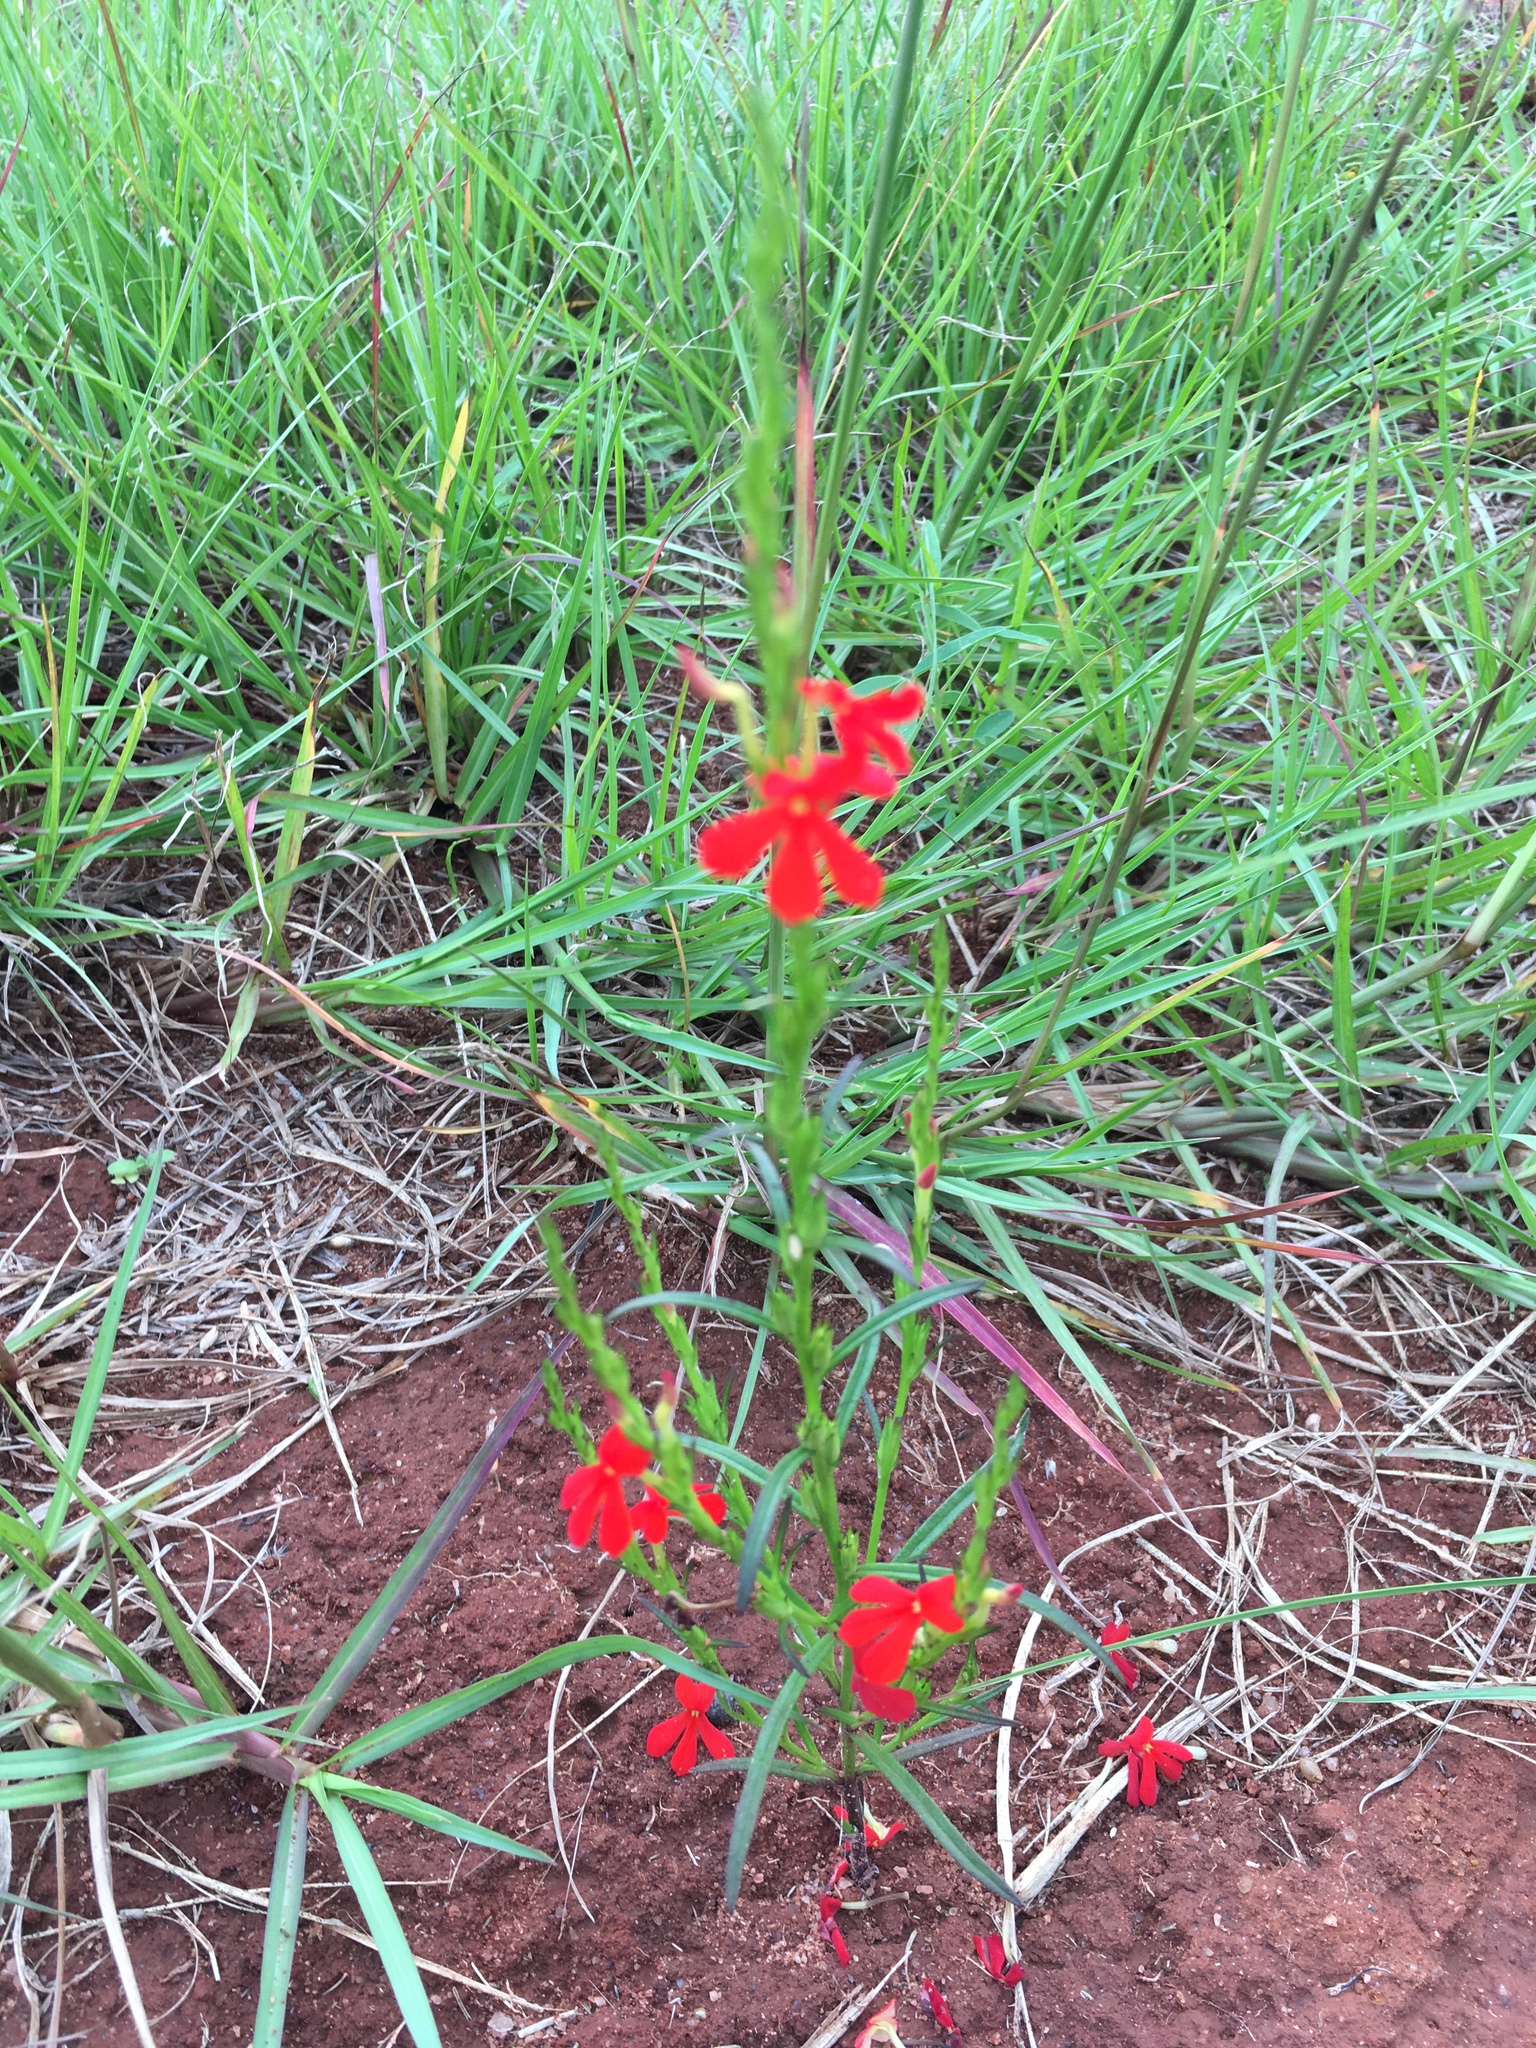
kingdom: Plantae
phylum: Tracheophyta
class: Magnoliopsida
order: Lamiales
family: Orobanchaceae
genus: Striga
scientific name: Striga elegans
